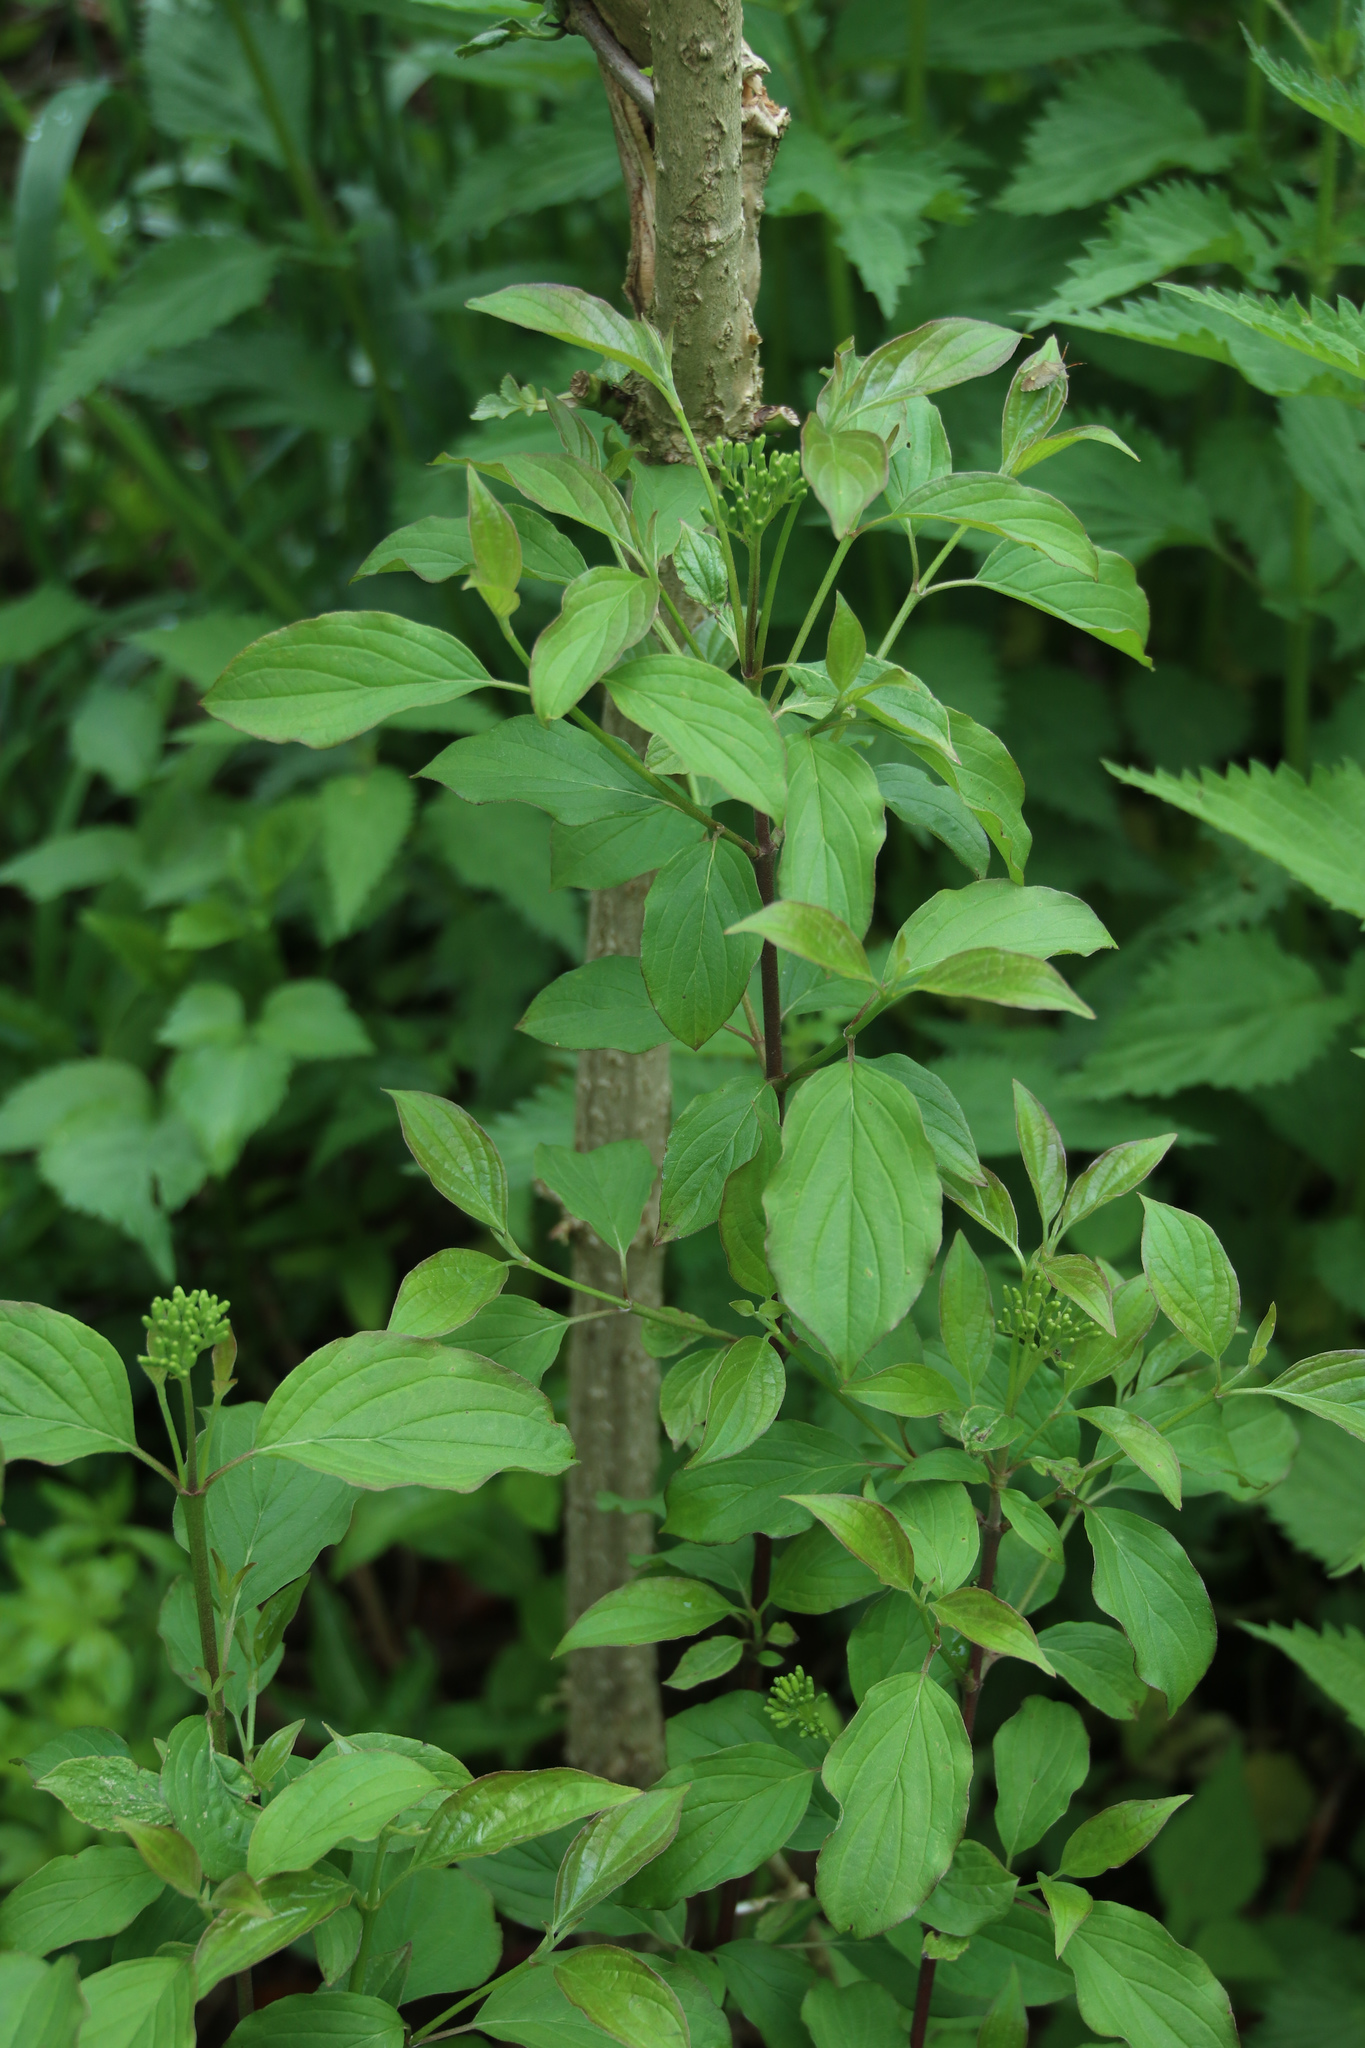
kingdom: Plantae
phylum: Tracheophyta
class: Magnoliopsida
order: Cornales
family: Cornaceae
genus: Cornus
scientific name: Cornus sanguinea
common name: Dogwood
